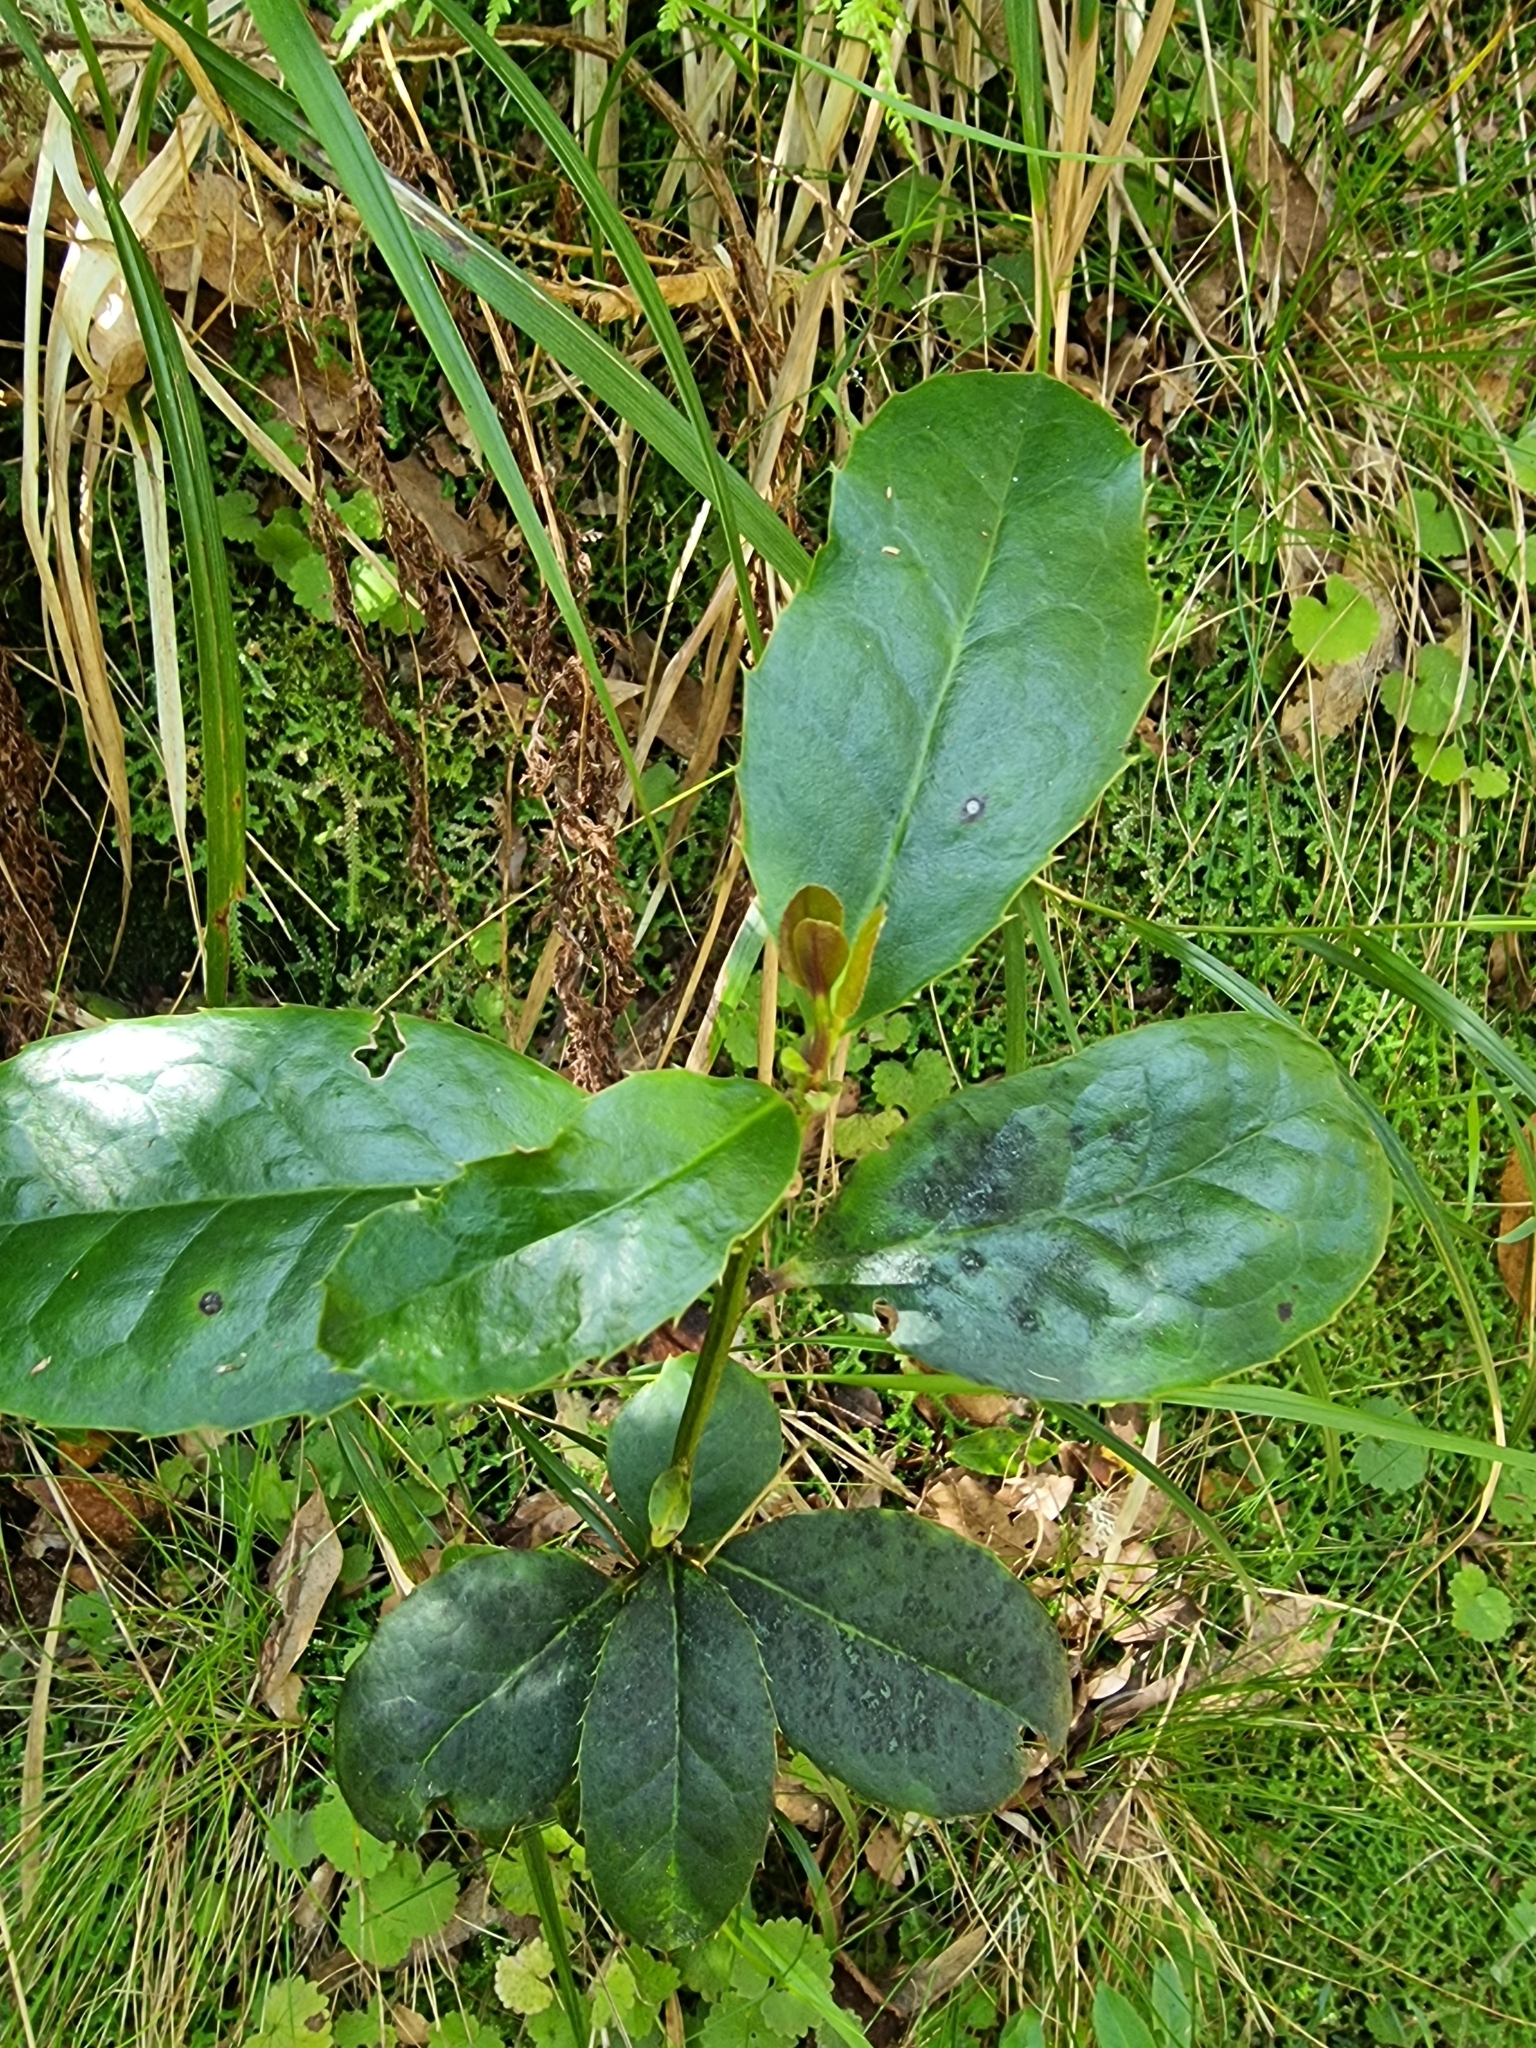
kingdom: Plantae
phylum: Tracheophyta
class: Magnoliopsida
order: Aquifoliales
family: Aquifoliaceae
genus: Ilex
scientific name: Ilex perado
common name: Madeira holly
